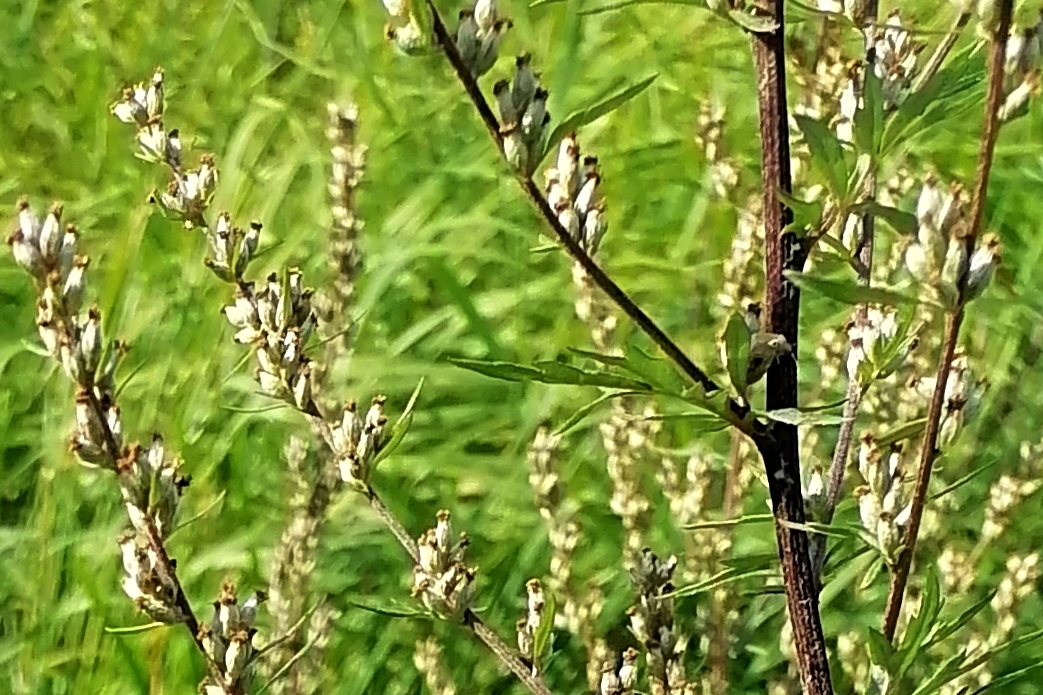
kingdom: Plantae
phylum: Tracheophyta
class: Magnoliopsida
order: Asterales
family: Asteraceae
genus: Artemisia
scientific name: Artemisia vulgaris
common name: Mugwort
